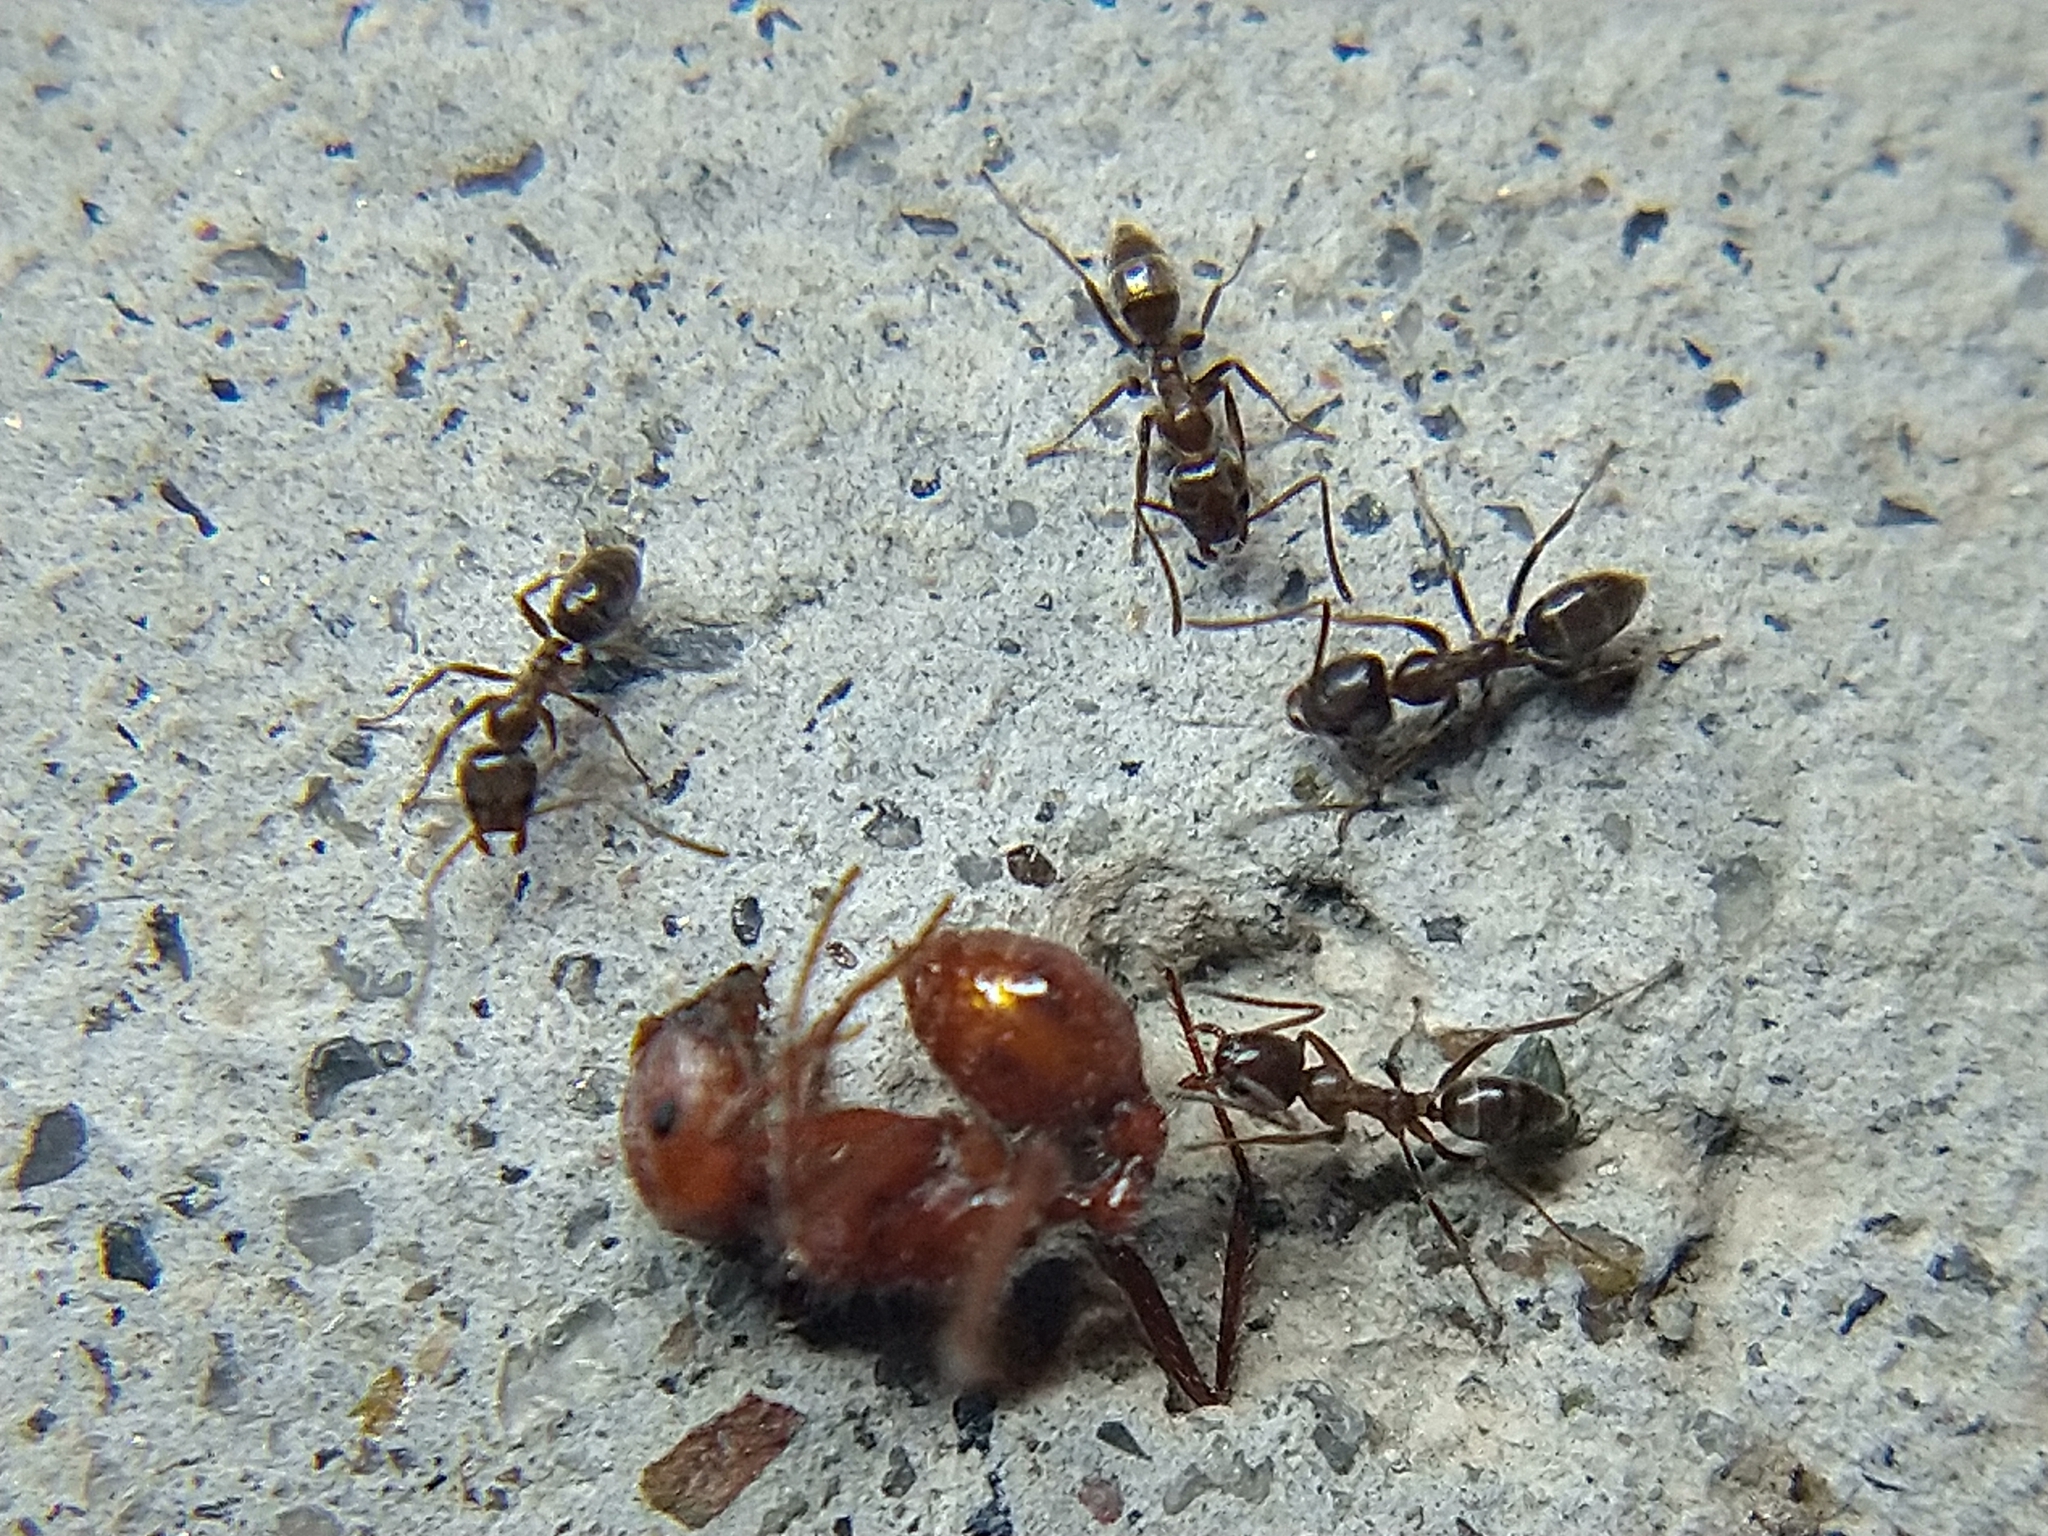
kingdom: Animalia
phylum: Arthropoda
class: Insecta
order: Hymenoptera
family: Formicidae
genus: Linepithema
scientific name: Linepithema humile
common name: Argentine ant
